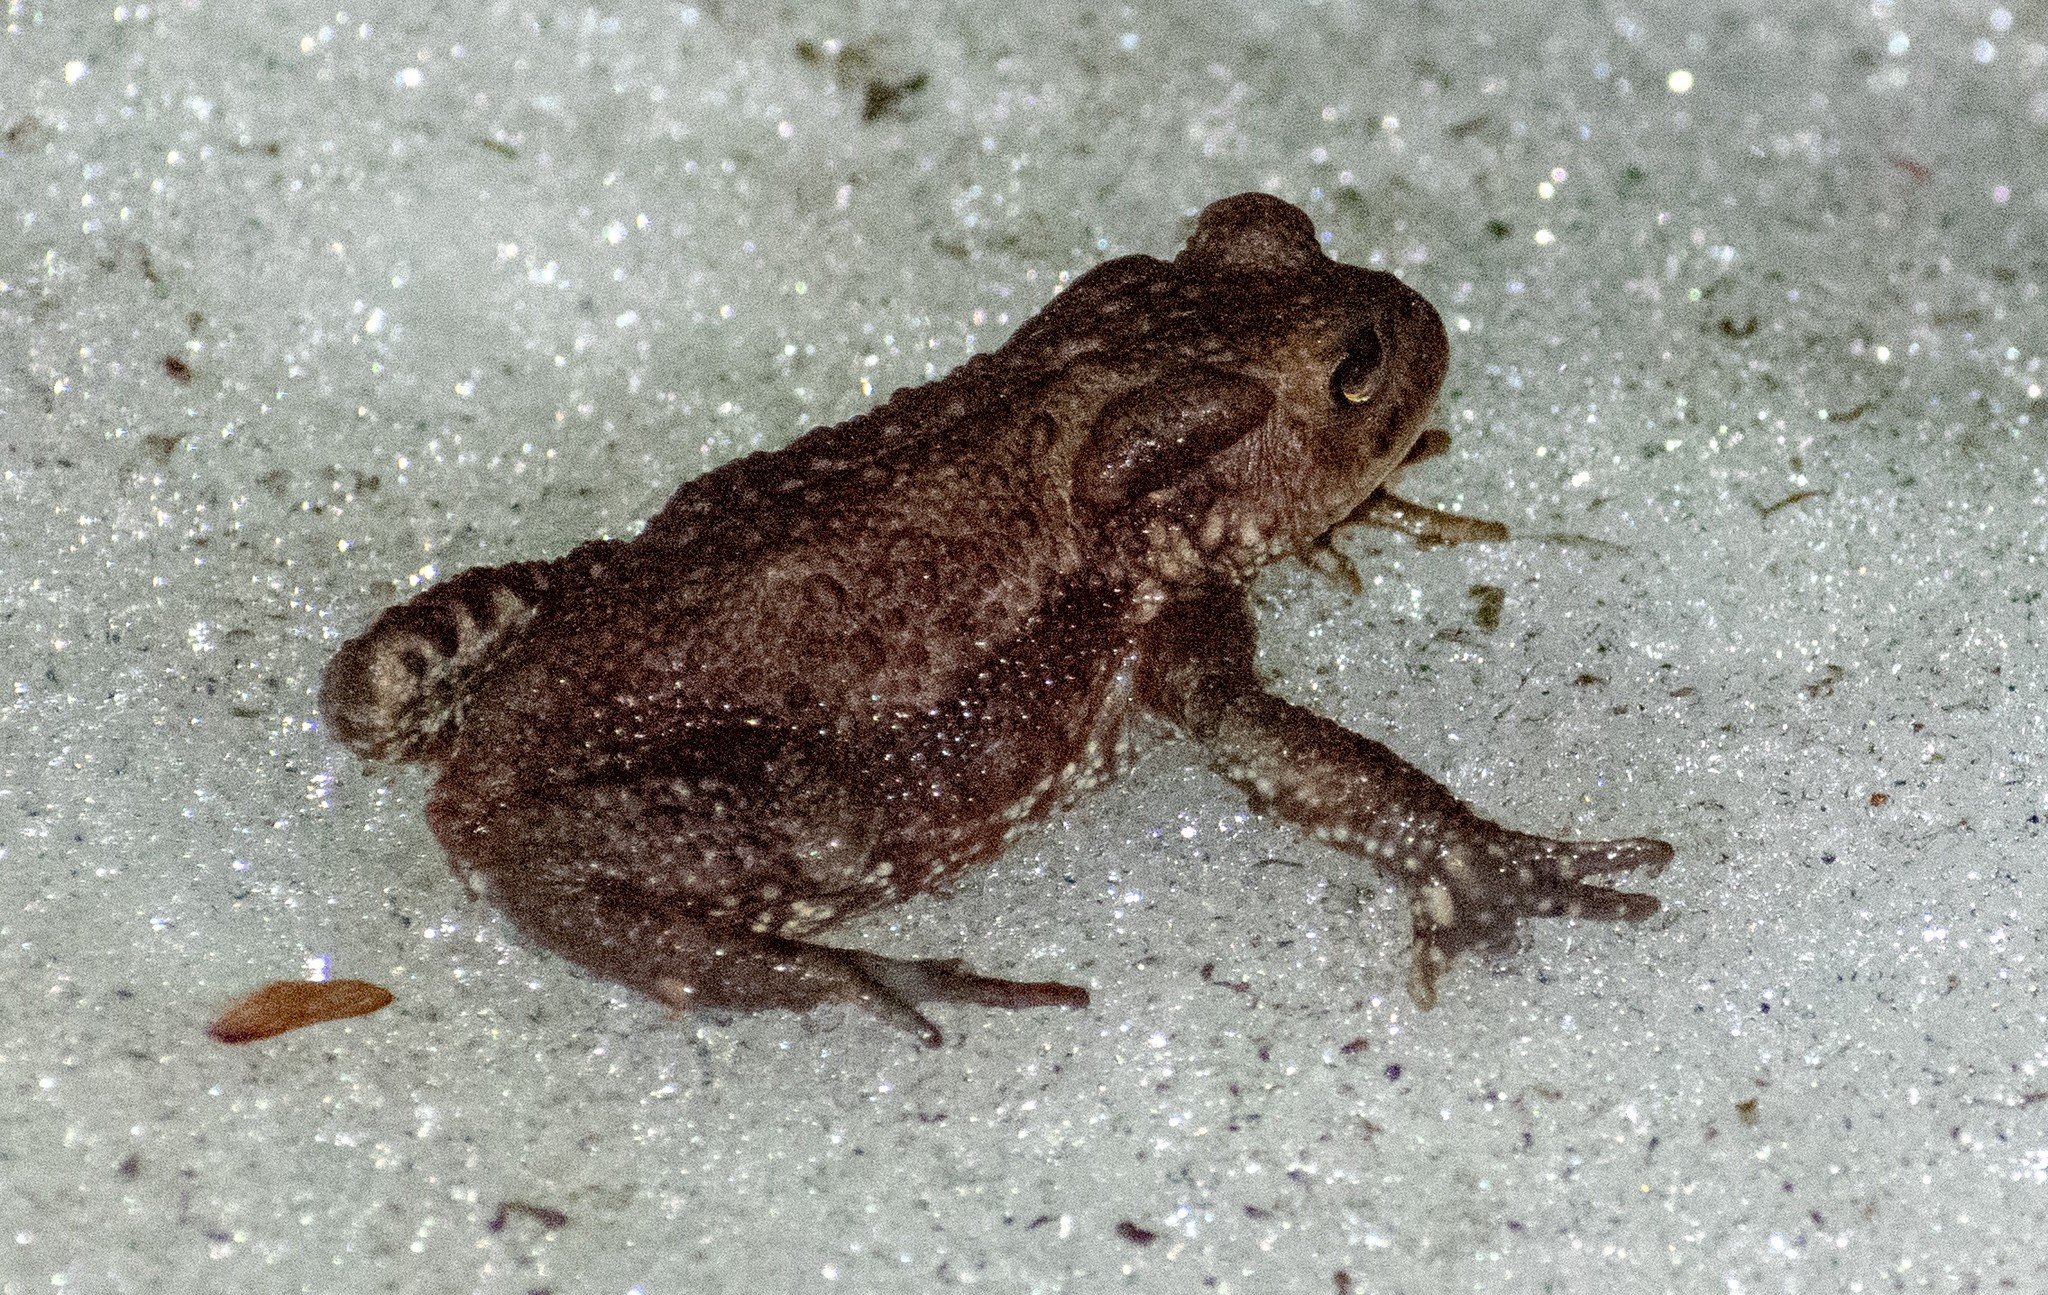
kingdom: Animalia
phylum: Chordata
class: Amphibia
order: Anura
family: Bufonidae
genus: Bufo
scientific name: Bufo bufo
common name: Common toad
